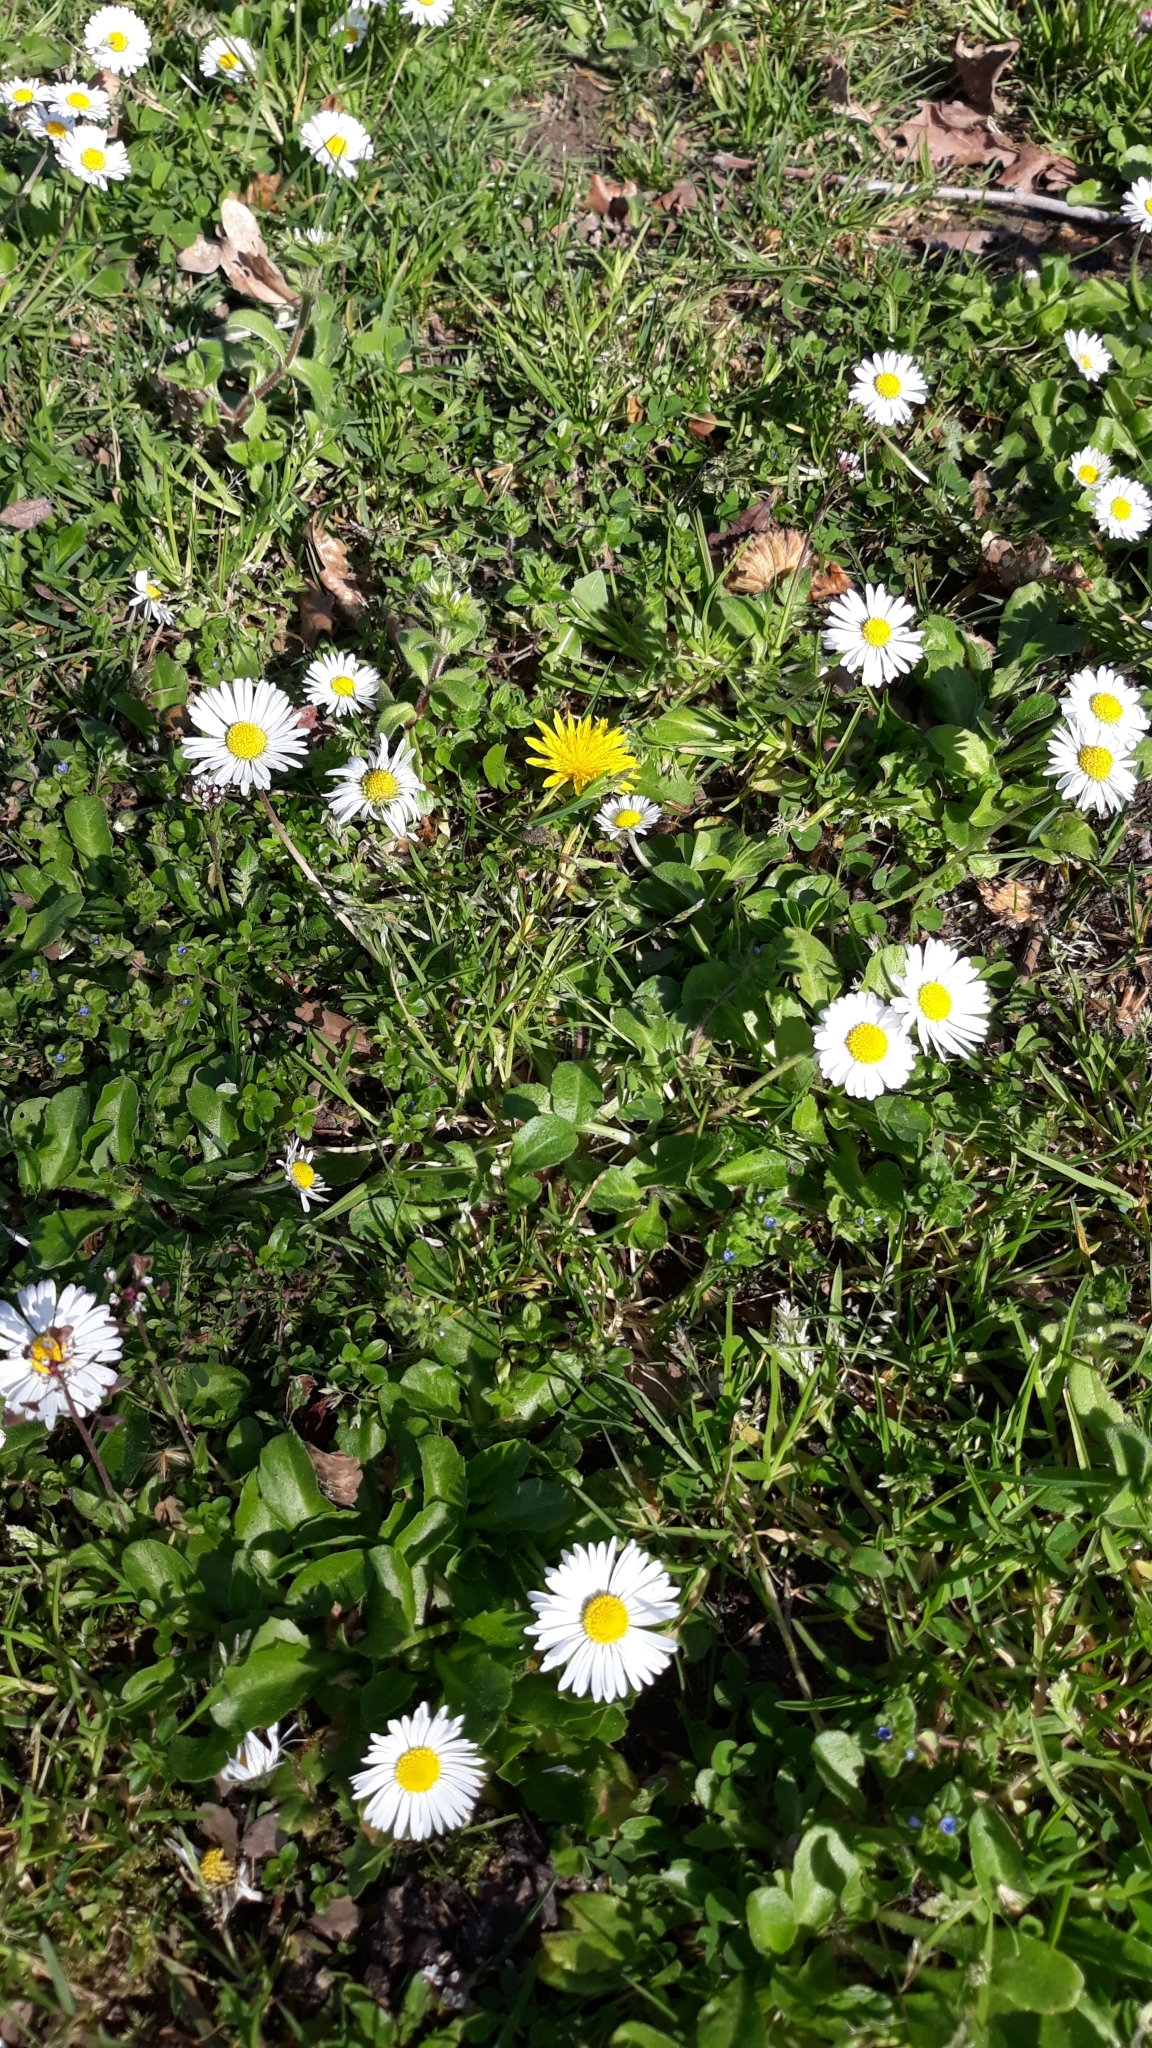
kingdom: Plantae
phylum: Tracheophyta
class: Magnoliopsida
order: Asterales
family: Asteraceae
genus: Taraxacum
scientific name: Taraxacum
